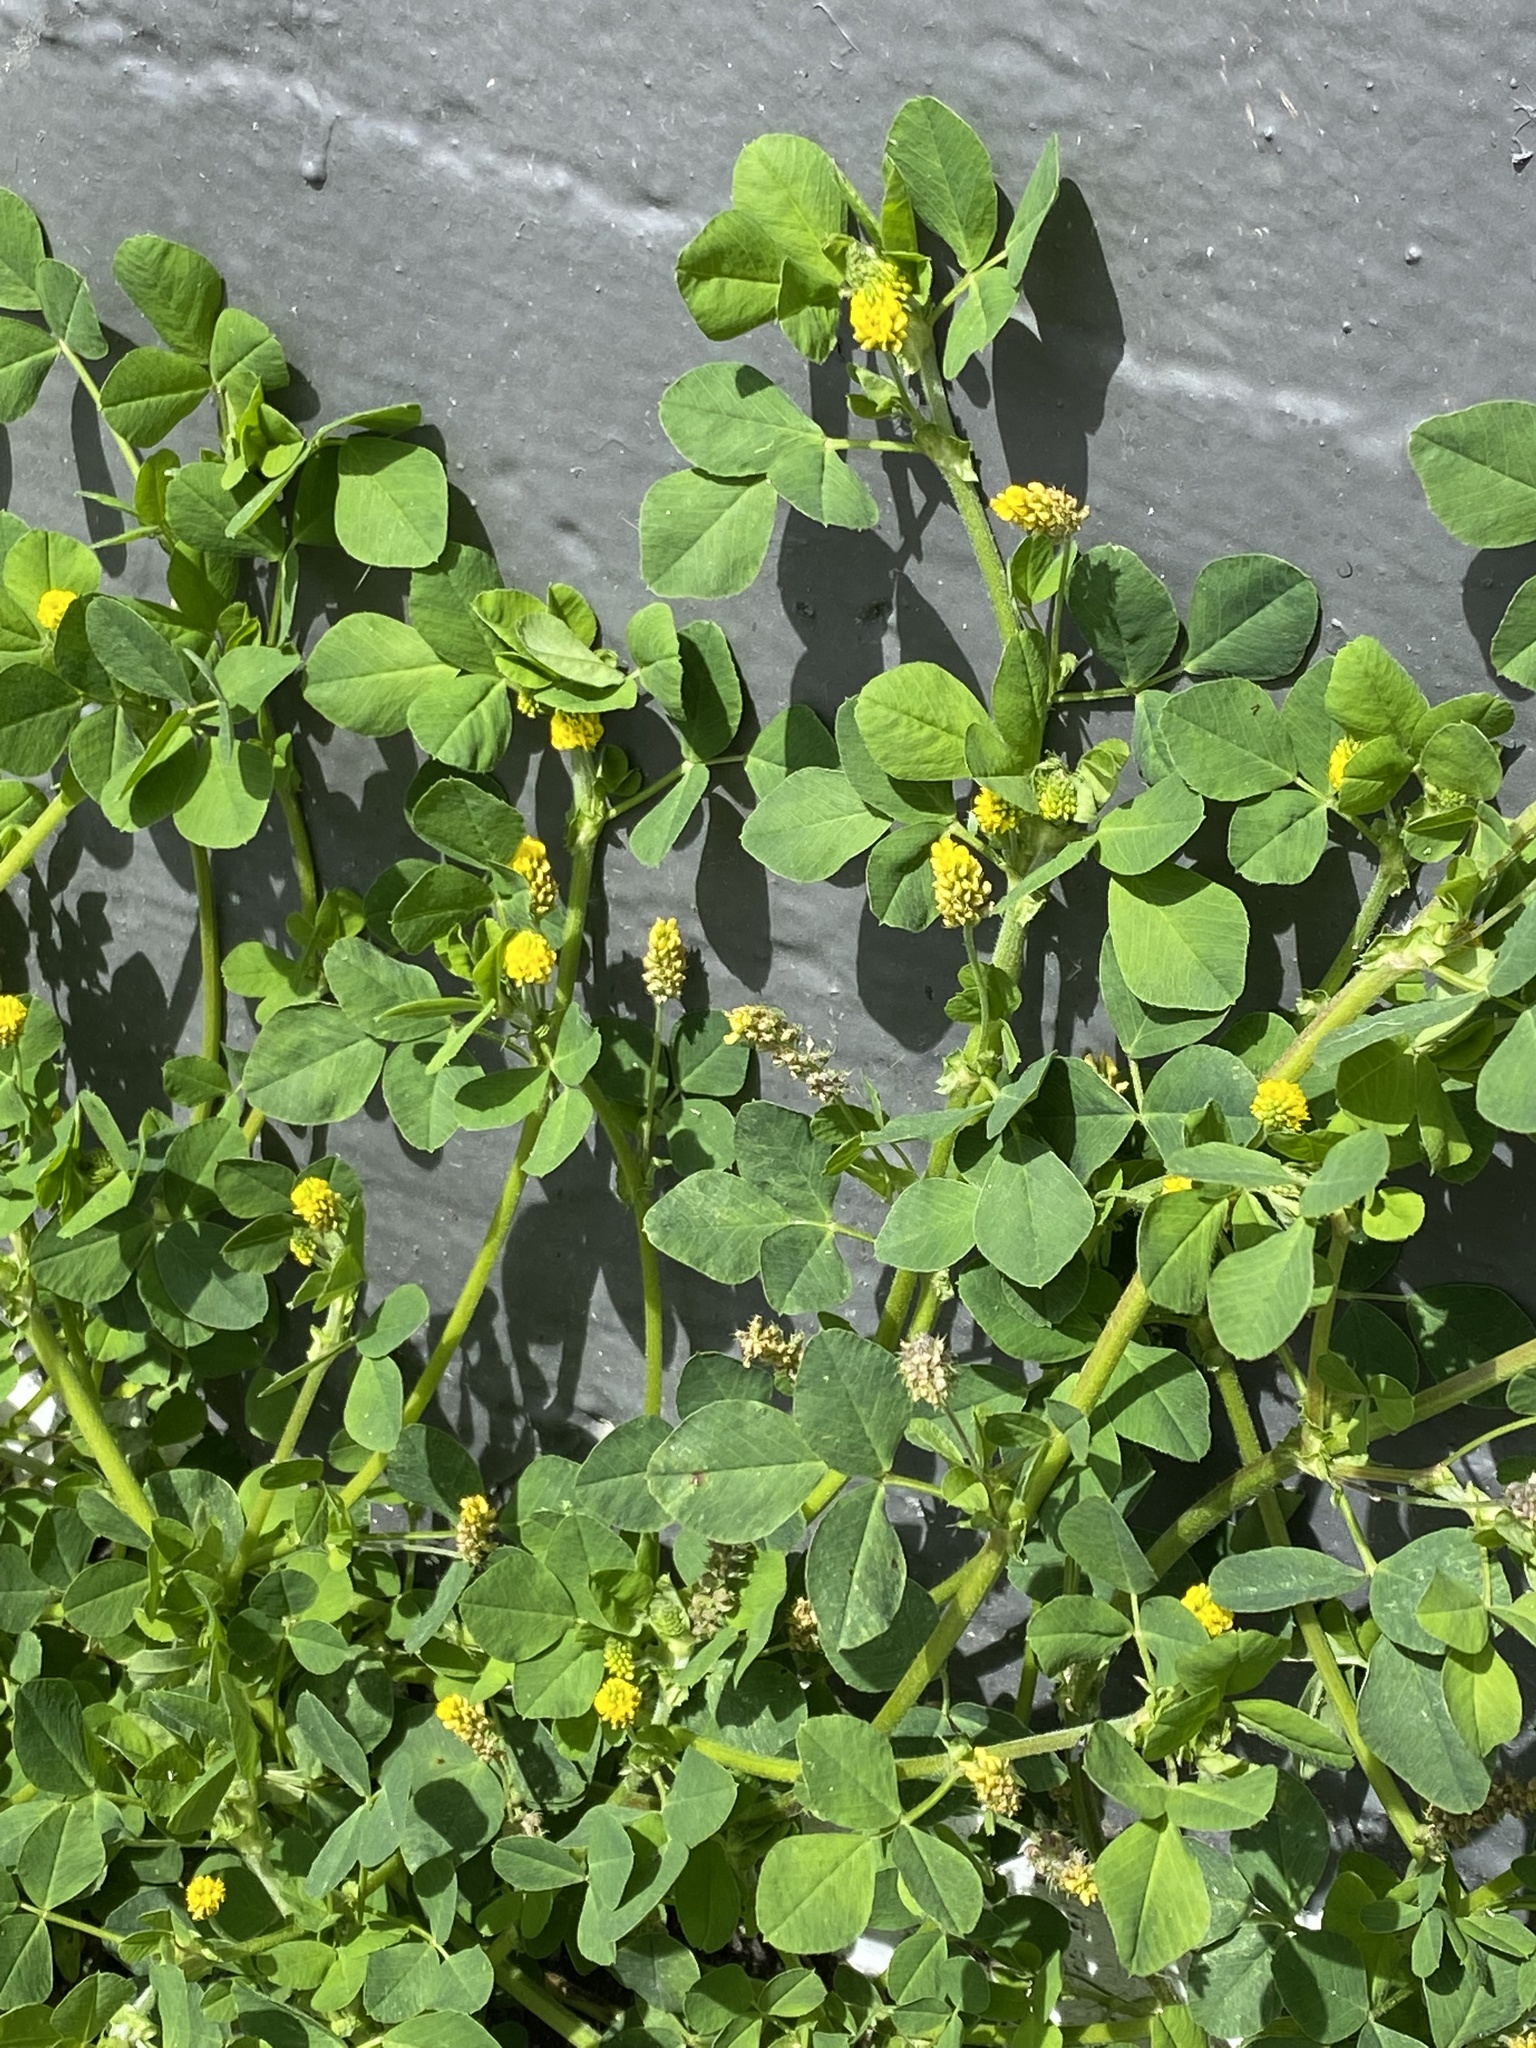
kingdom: Plantae
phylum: Tracheophyta
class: Magnoliopsida
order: Fabales
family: Fabaceae
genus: Medicago
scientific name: Medicago lupulina
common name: Black medick
